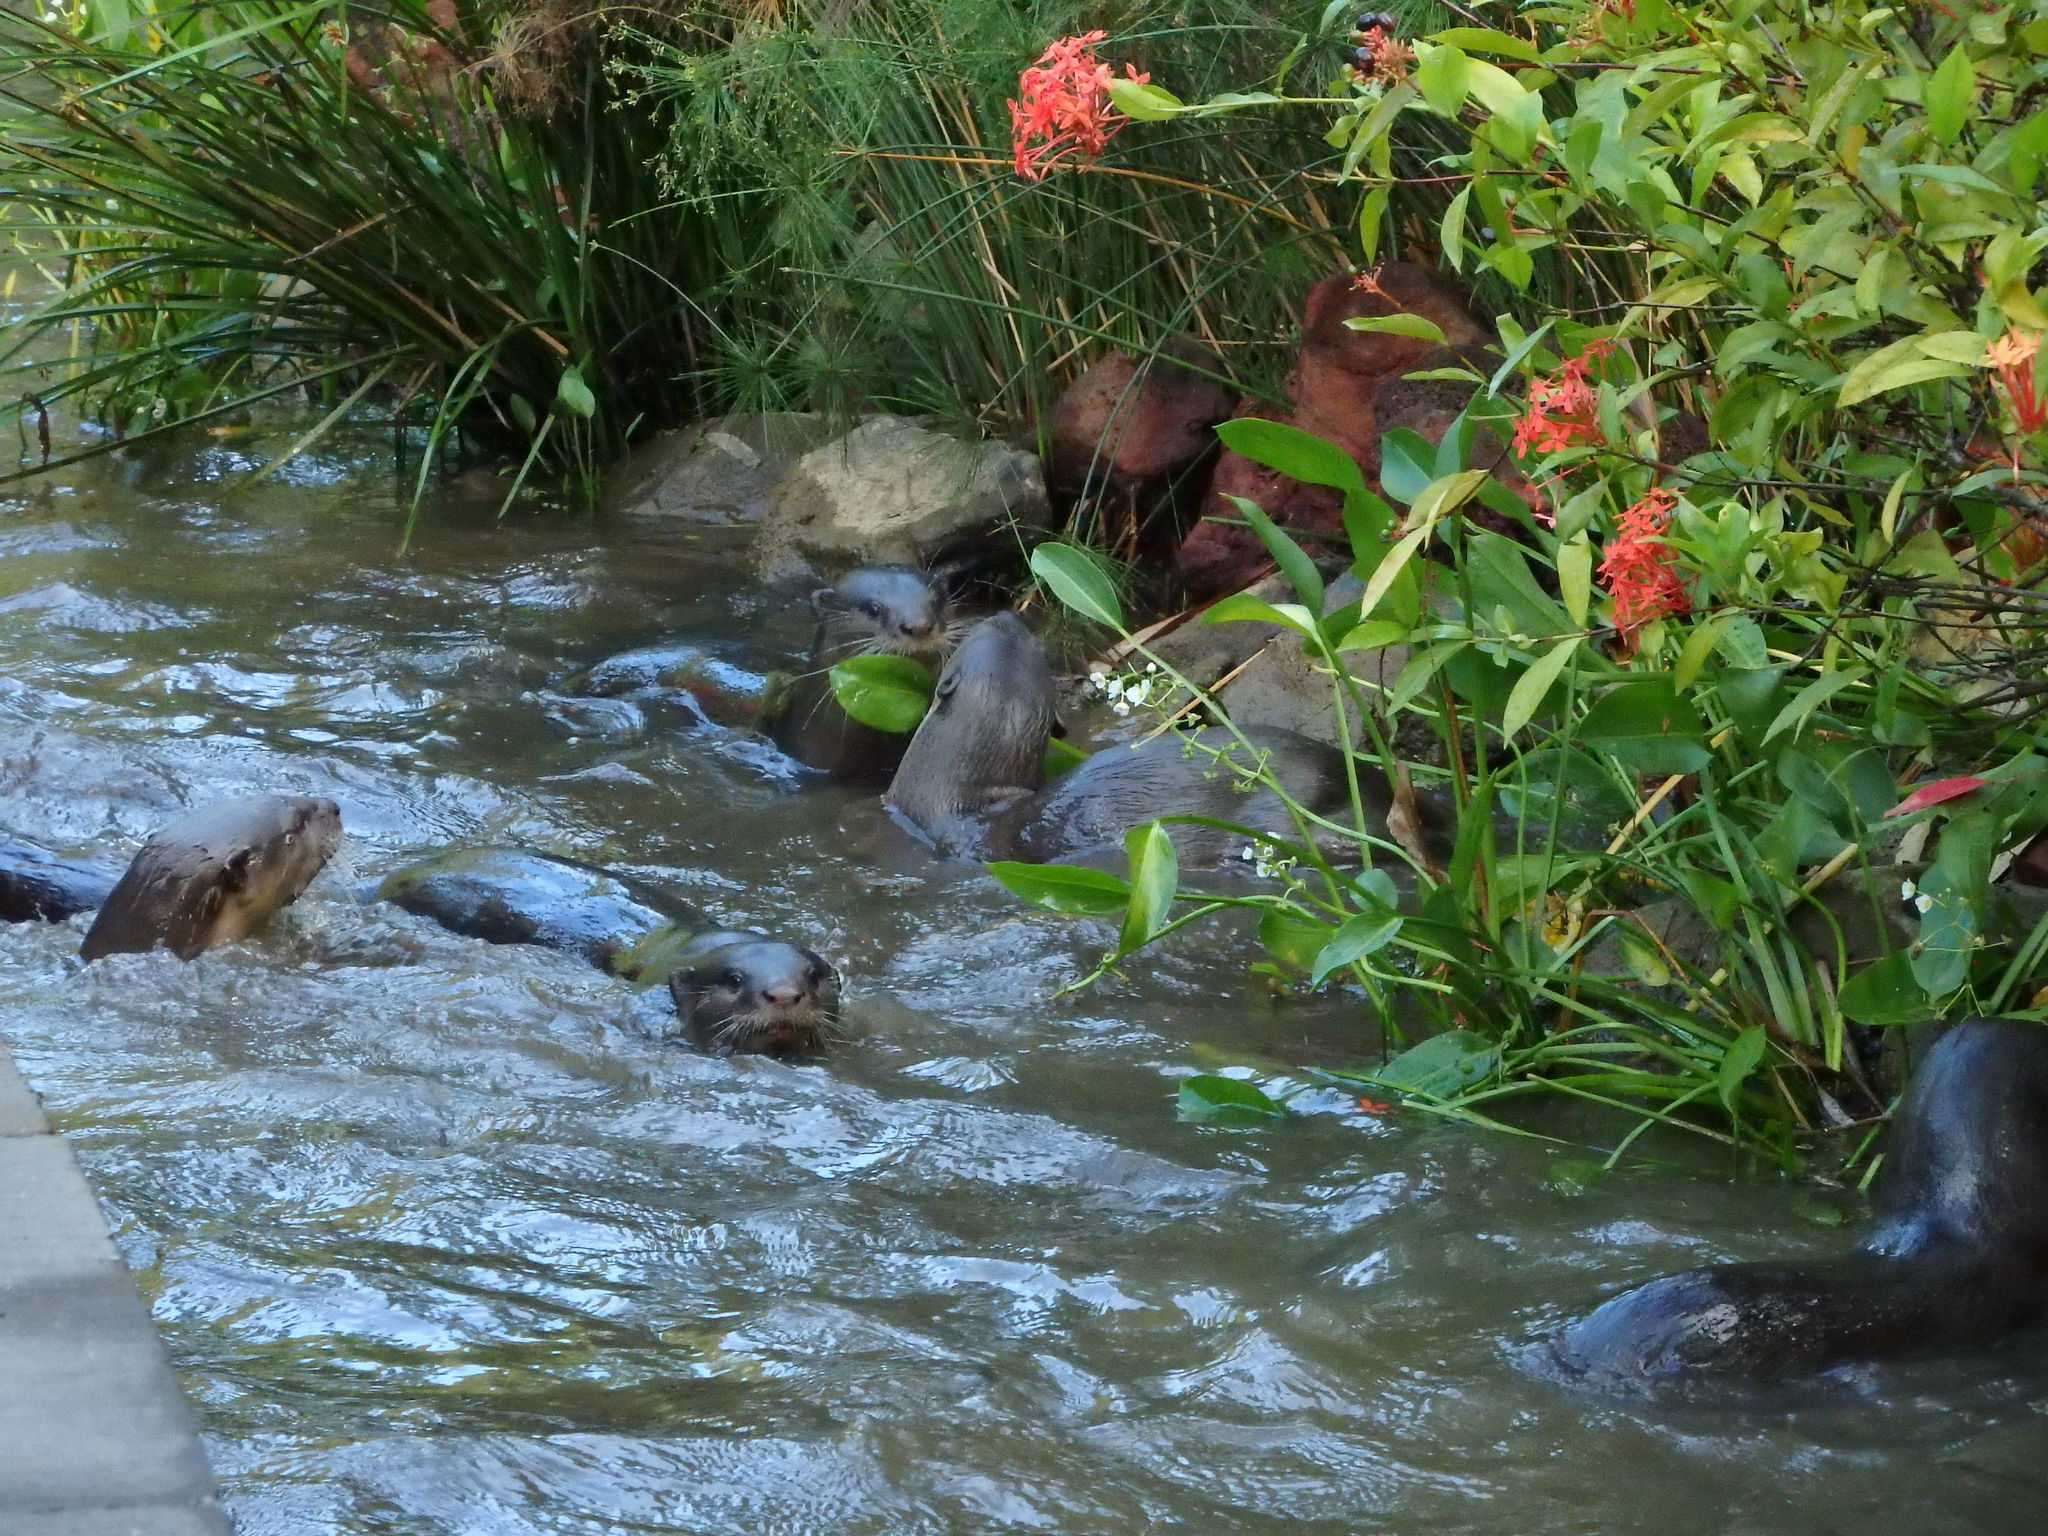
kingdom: Animalia
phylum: Chordata
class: Mammalia
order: Carnivora
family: Mustelidae
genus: Lutrogale
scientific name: Lutrogale perspicillata
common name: Smooth-coated otter
